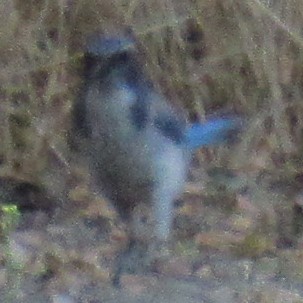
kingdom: Animalia
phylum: Chordata
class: Aves
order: Passeriformes
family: Corvidae
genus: Aphelocoma
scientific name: Aphelocoma californica
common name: California scrub-jay
